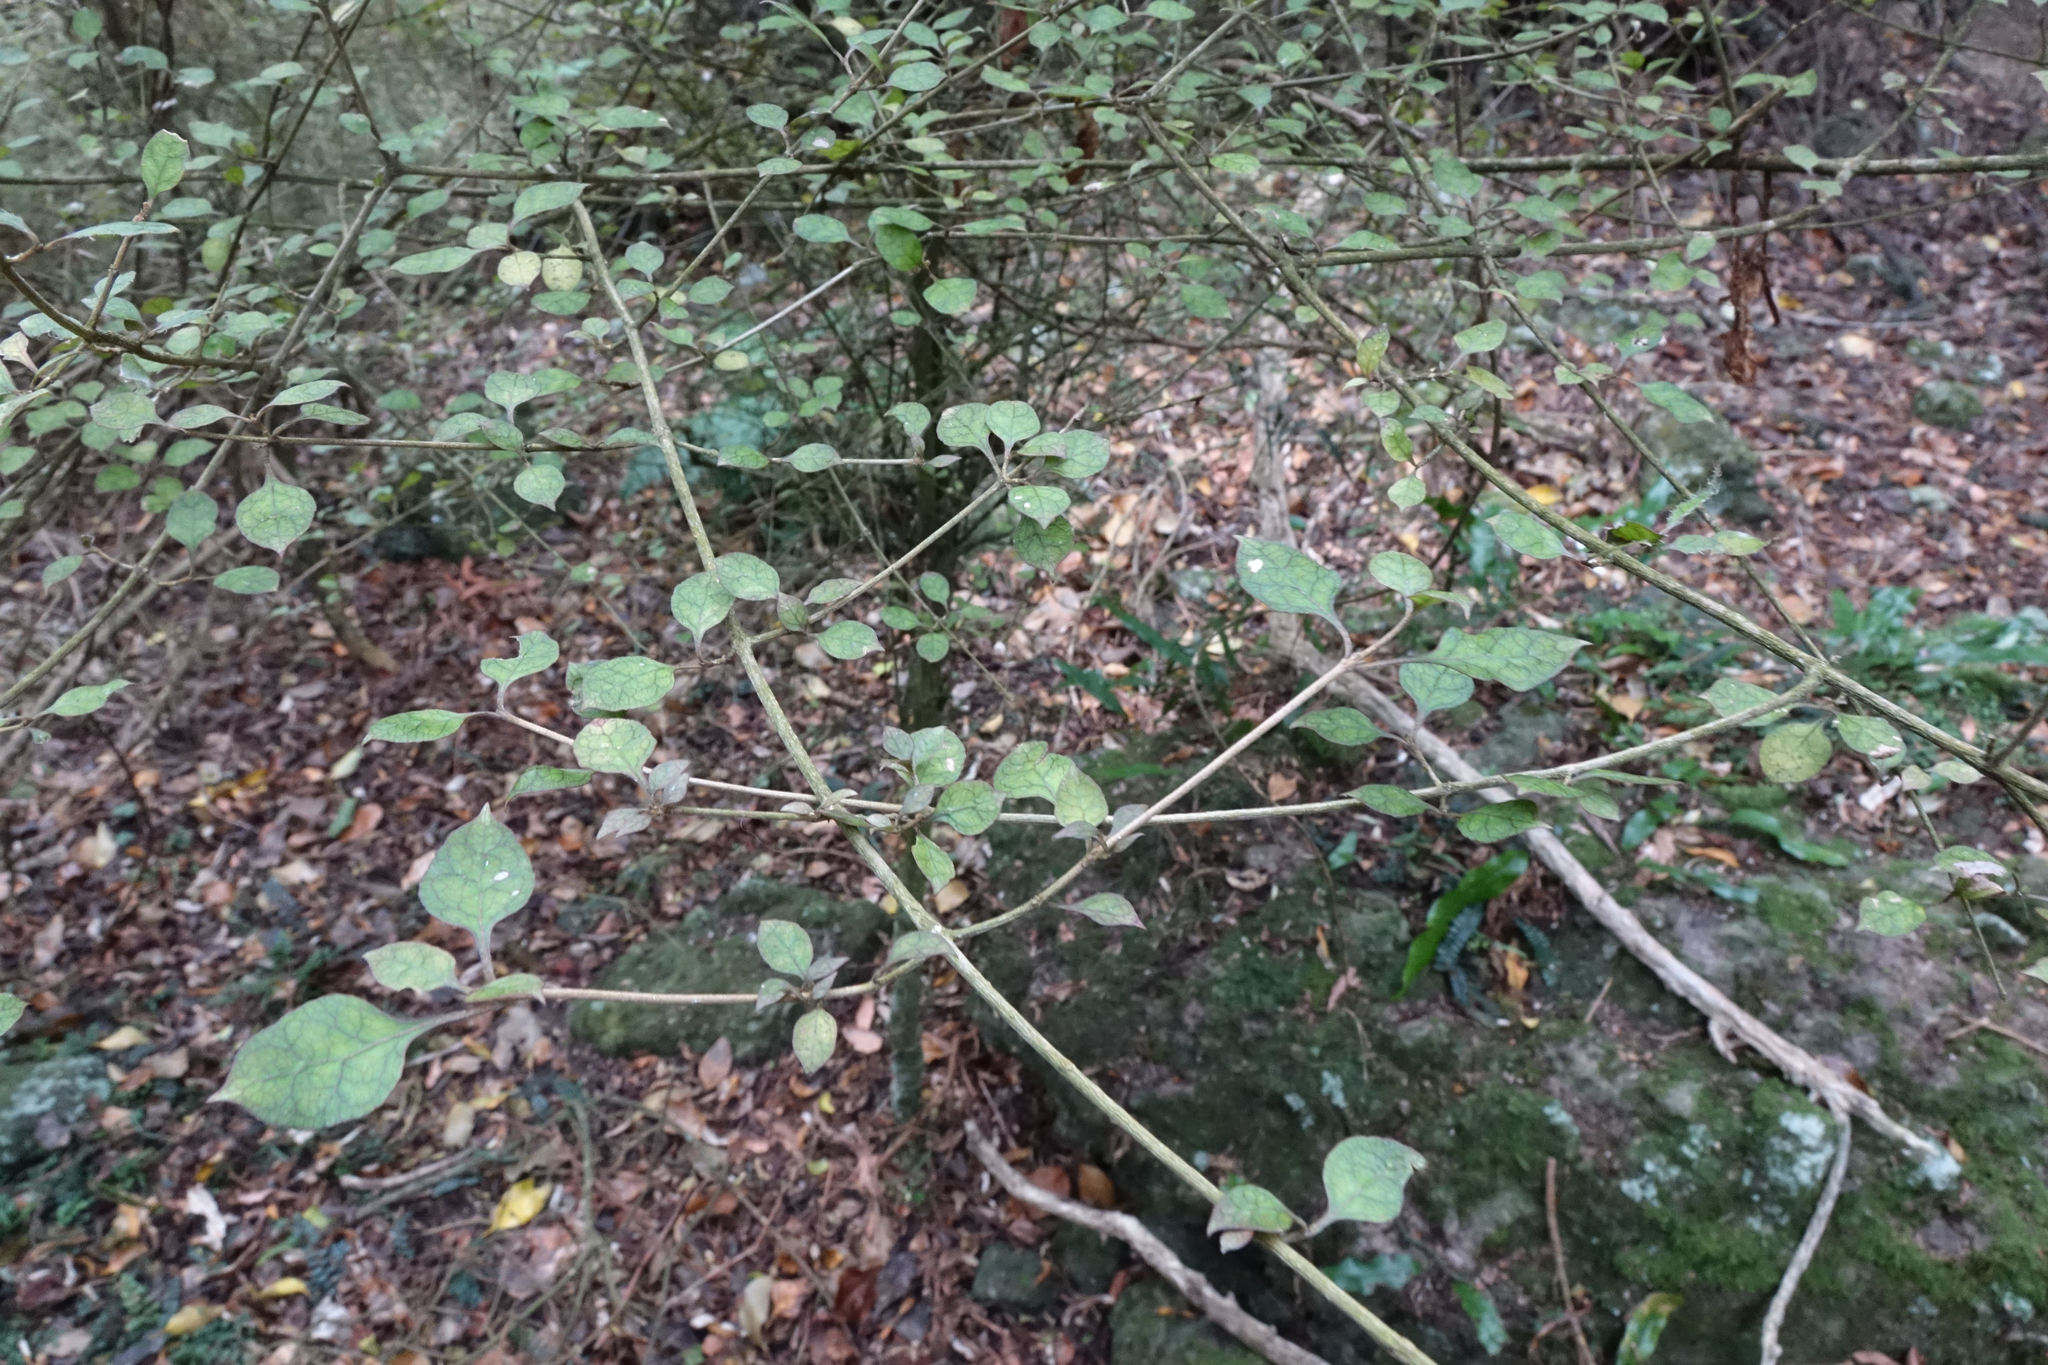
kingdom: Plantae
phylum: Tracheophyta
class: Magnoliopsida
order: Gentianales
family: Rubiaceae
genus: Coprosma
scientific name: Coprosma areolata
